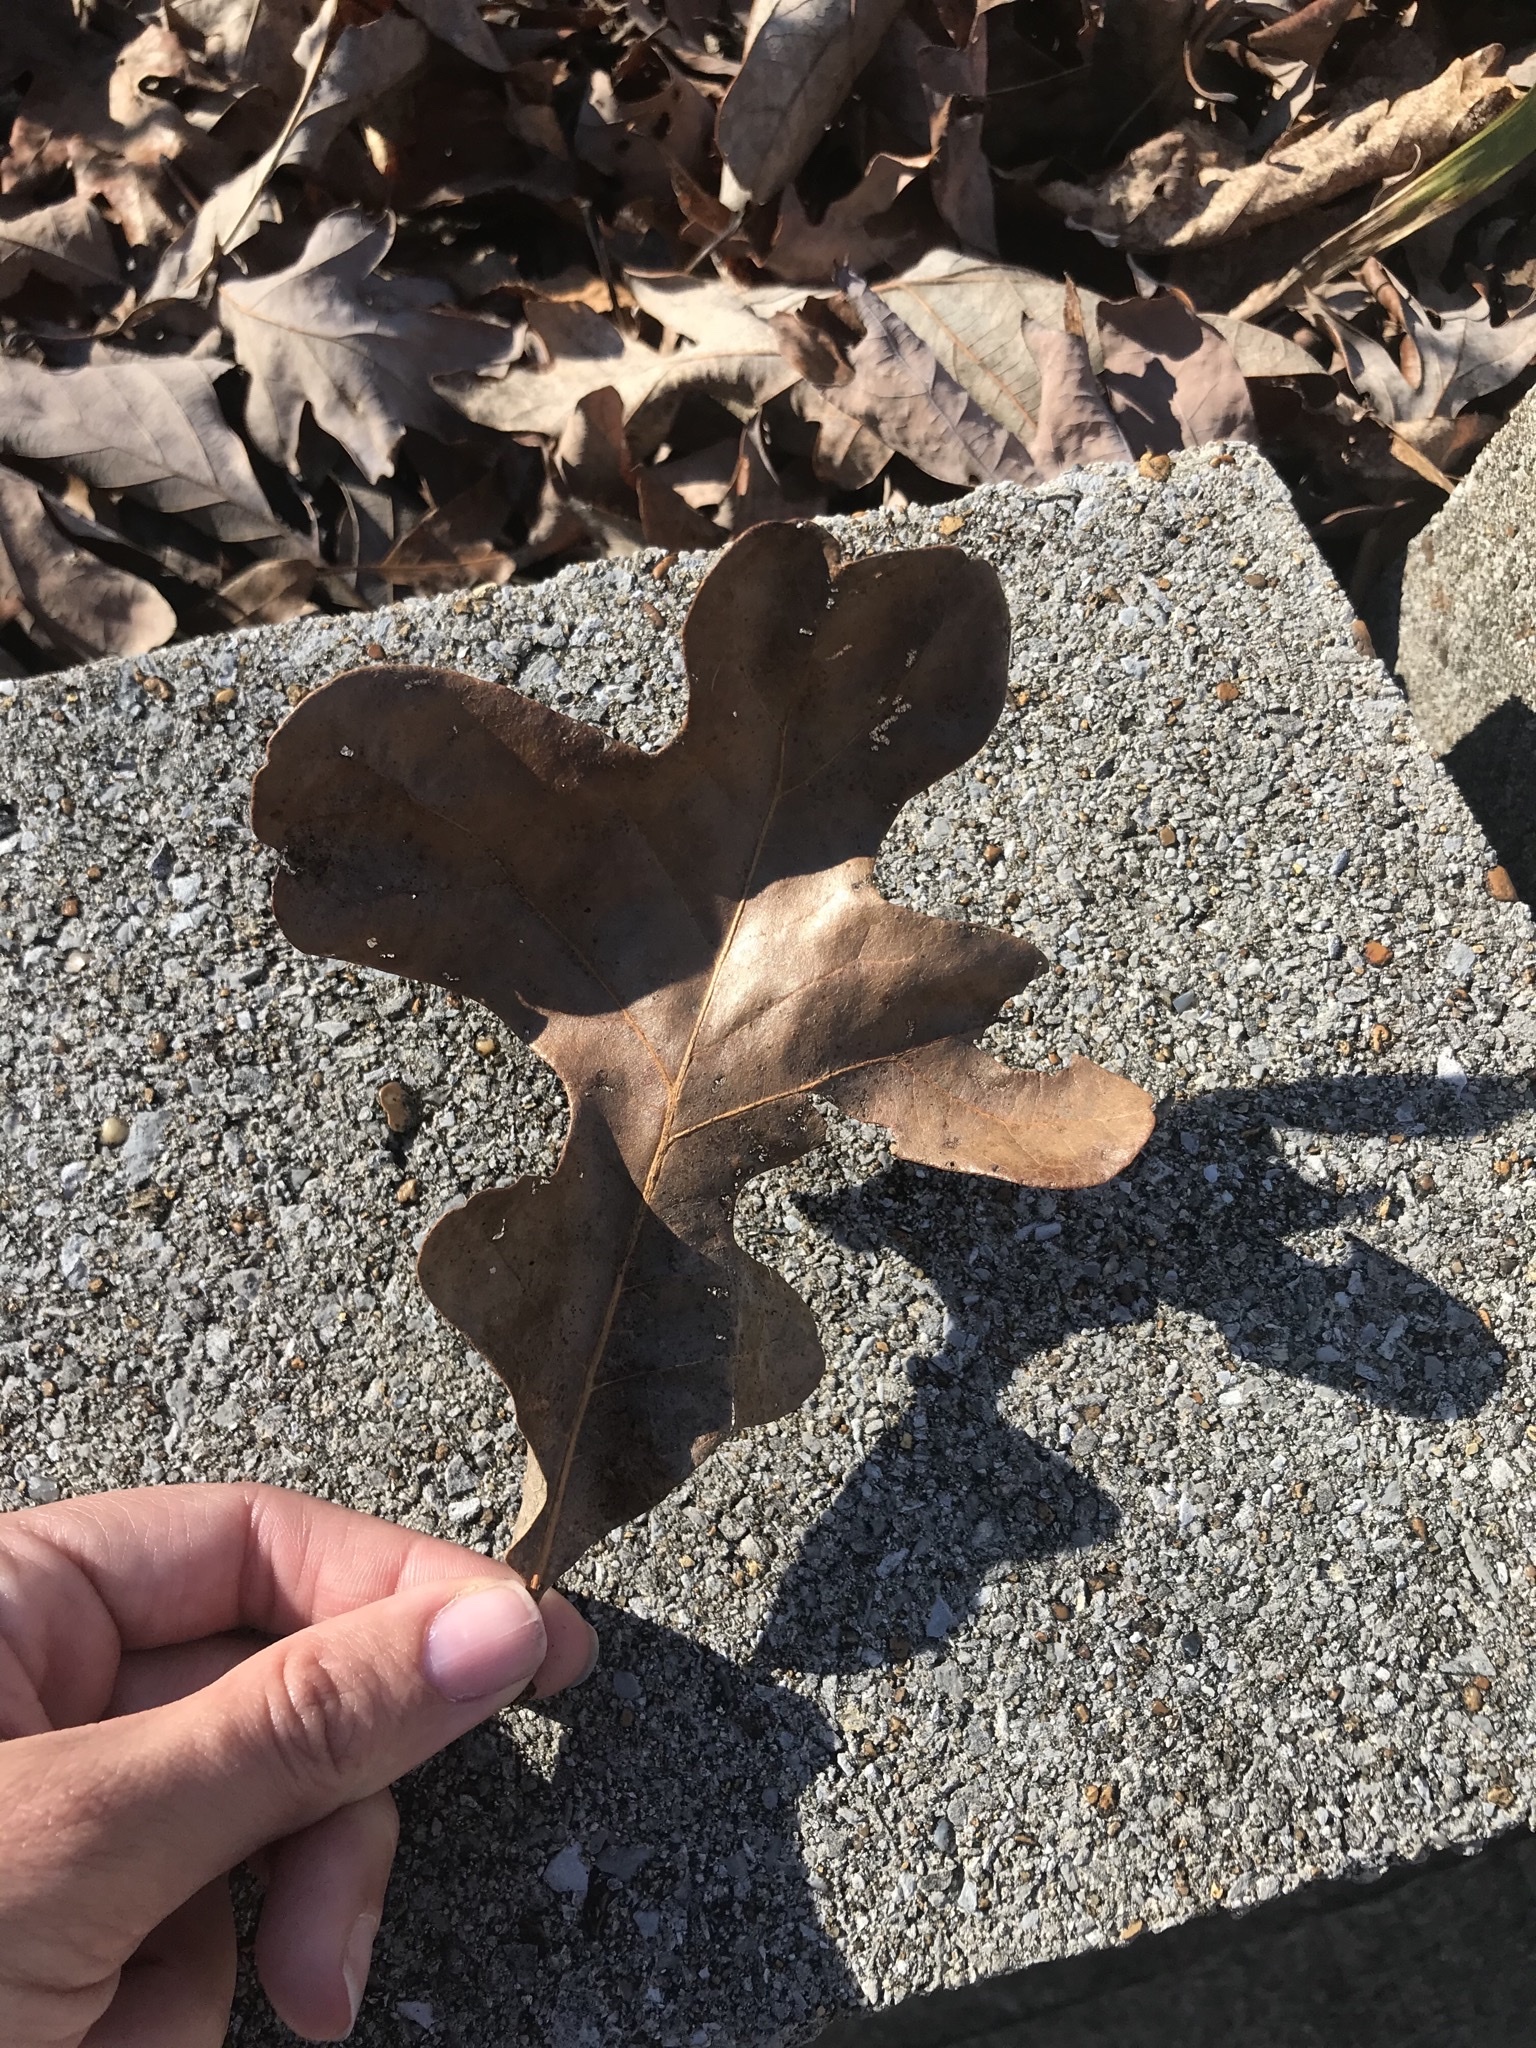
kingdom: Plantae
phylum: Tracheophyta
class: Magnoliopsida
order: Fagales
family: Fagaceae
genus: Quercus
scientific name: Quercus stellata
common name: Post oak
